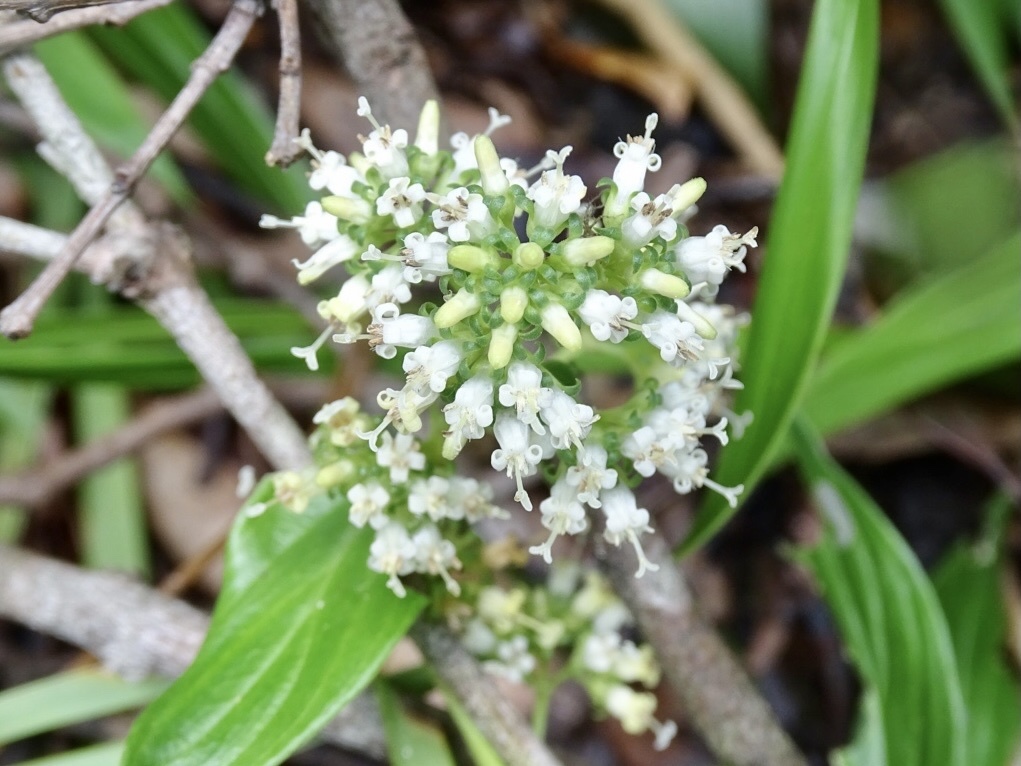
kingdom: Plantae
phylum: Tracheophyta
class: Magnoliopsida
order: Gentianales
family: Rubiaceae
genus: Dimetia
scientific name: Dimetia hedyotidea
